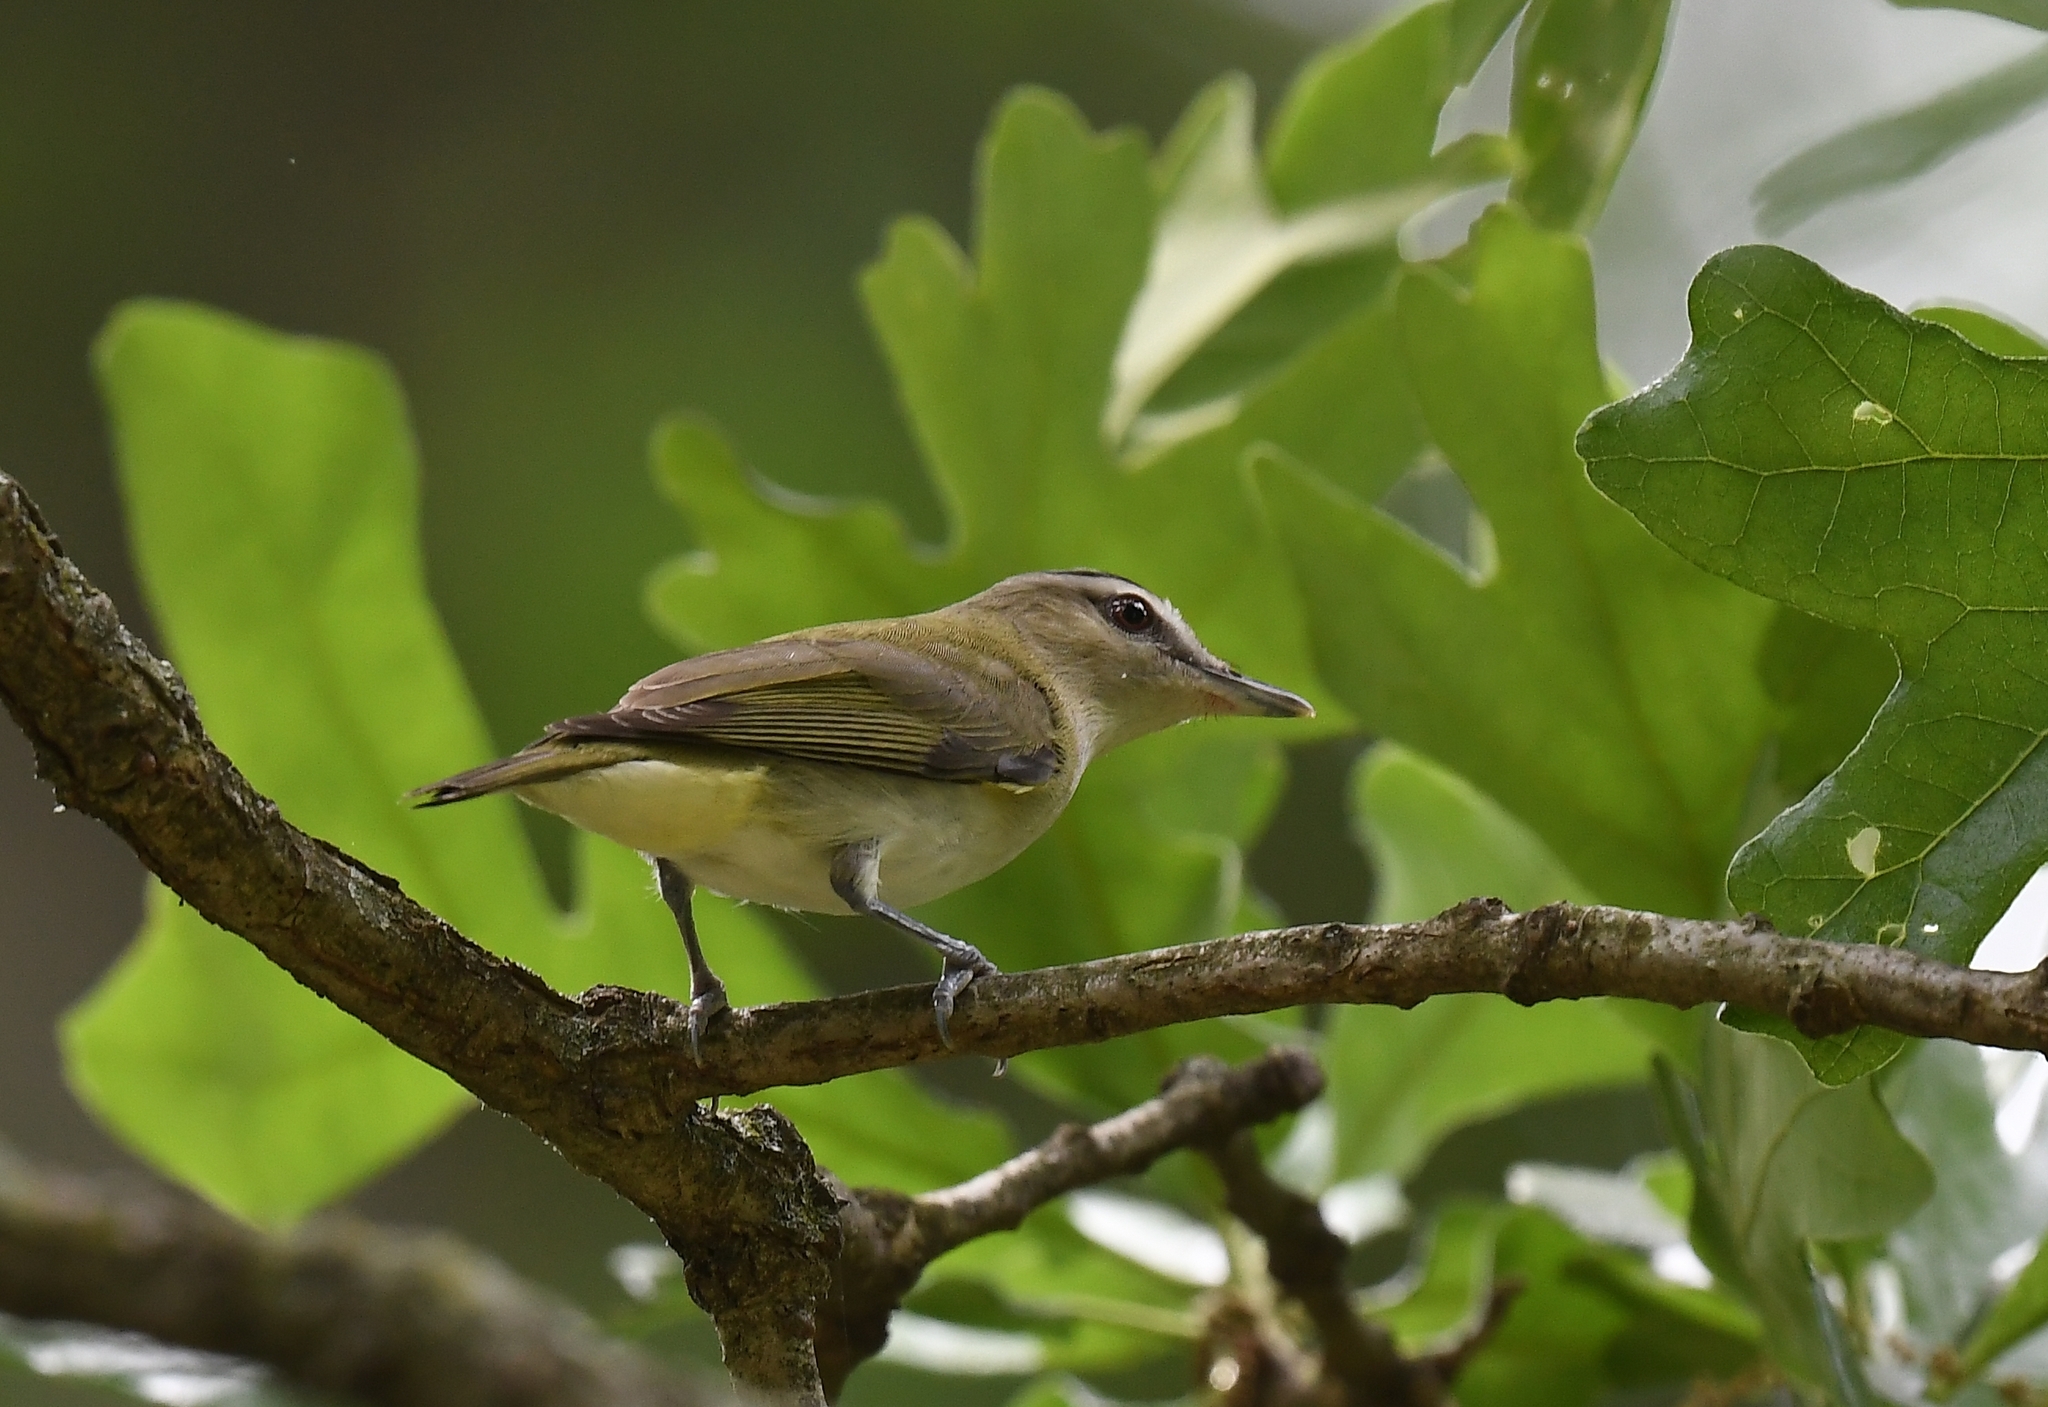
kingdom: Animalia
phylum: Chordata
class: Aves
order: Passeriformes
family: Vireonidae
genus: Vireo
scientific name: Vireo olivaceus
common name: Red-eyed vireo
